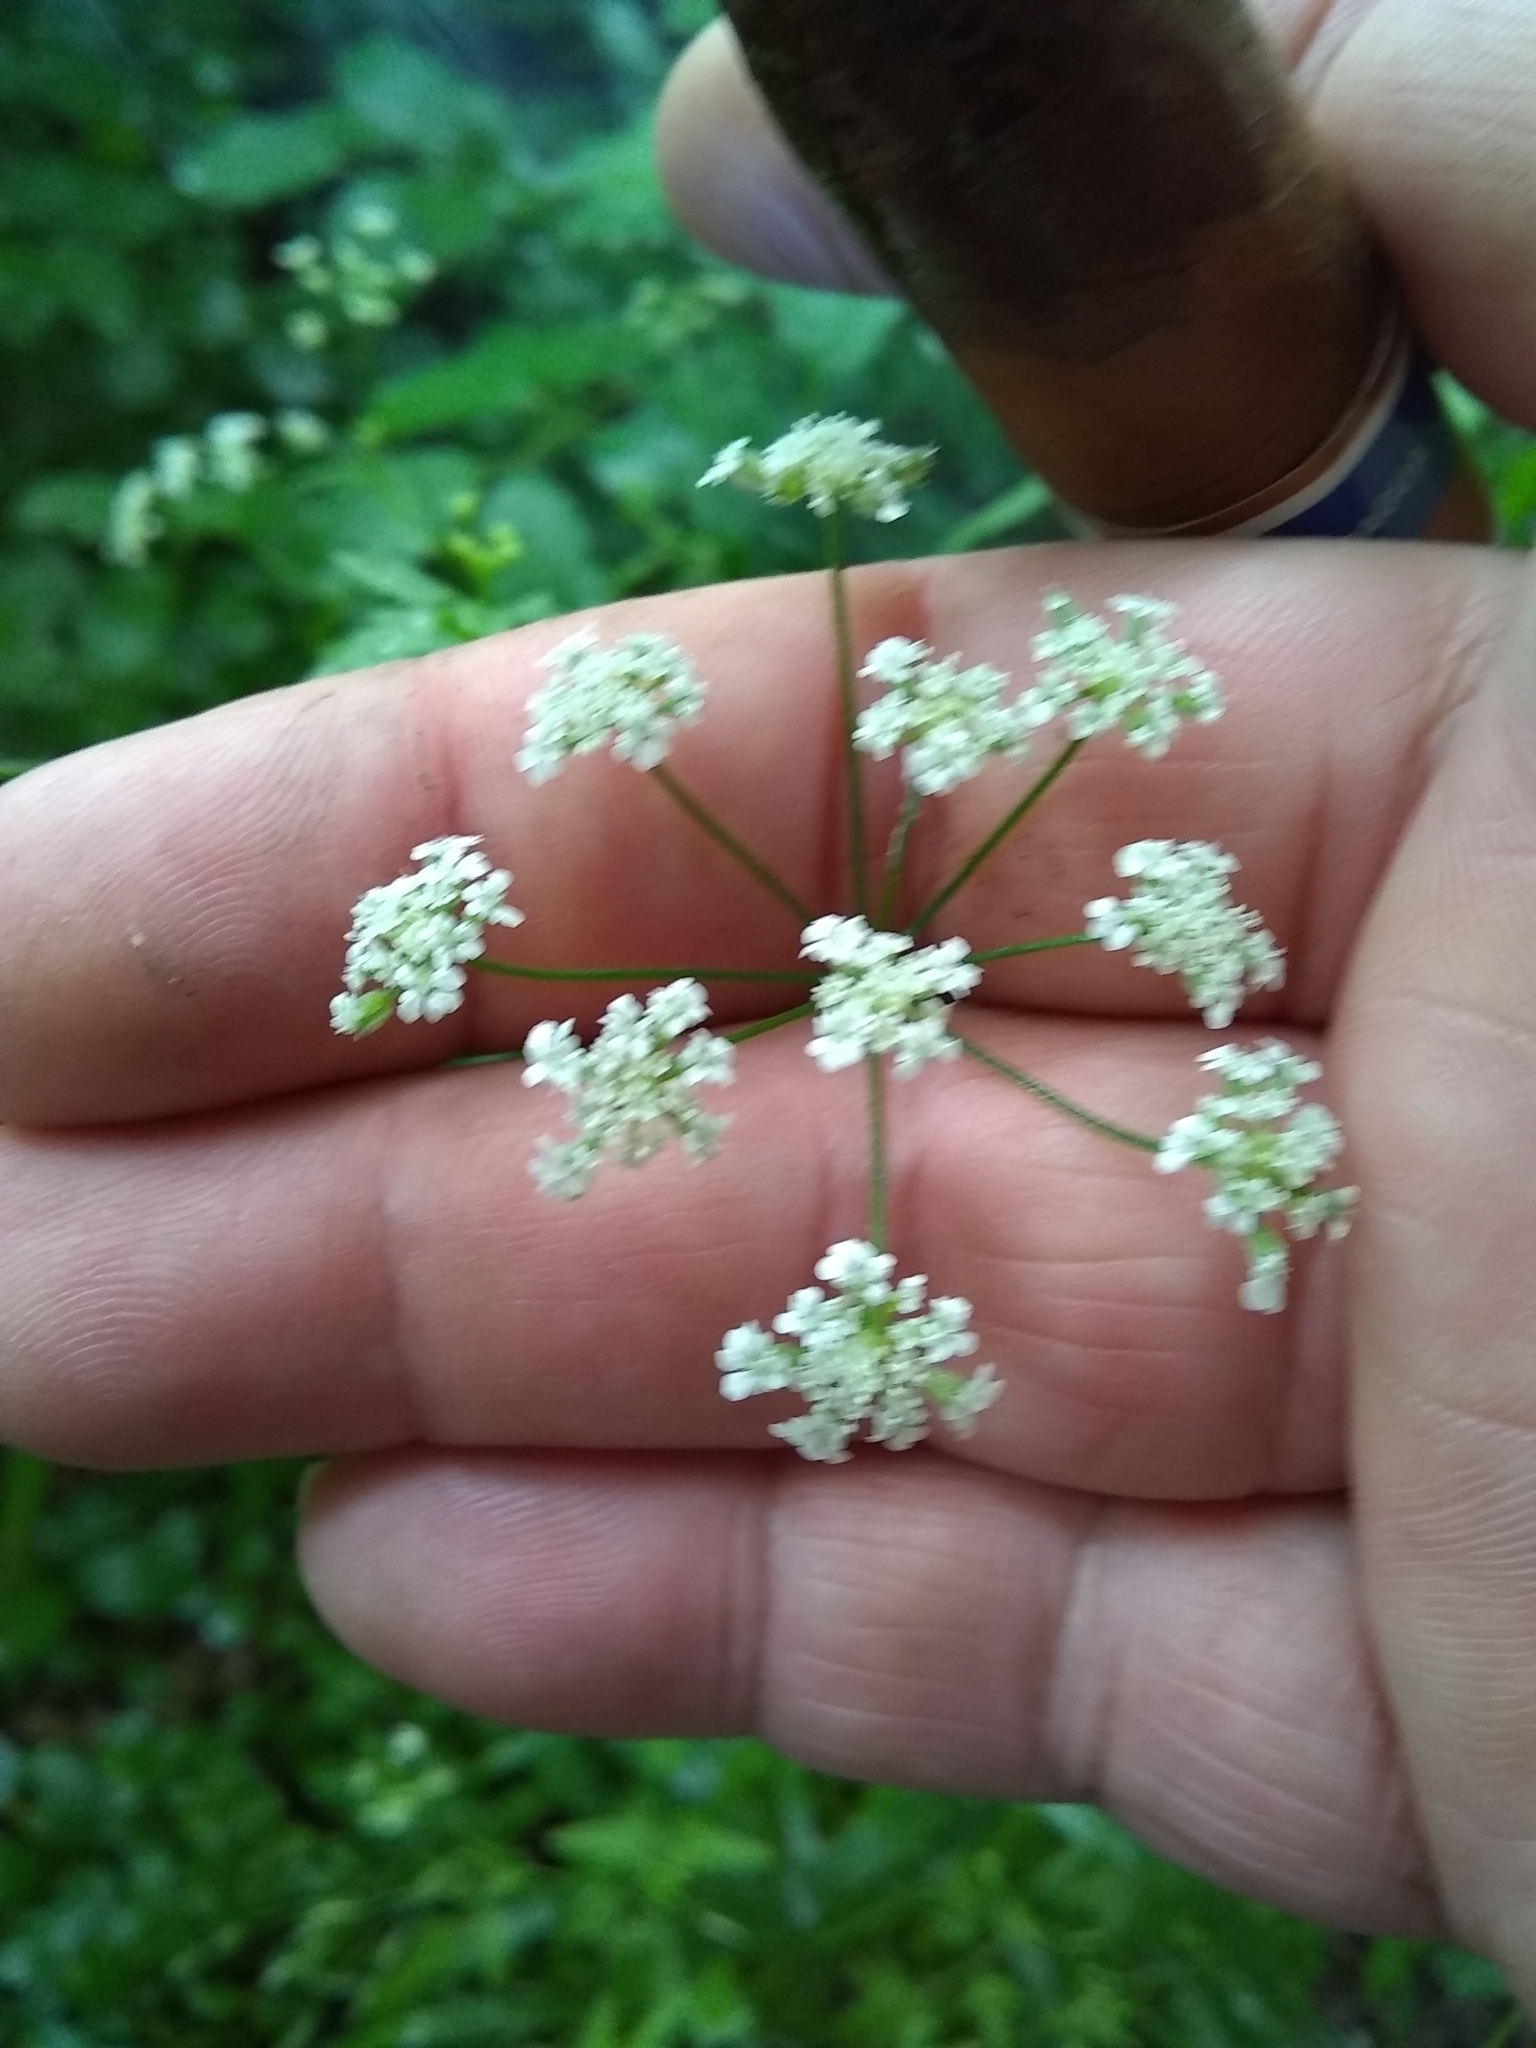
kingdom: Plantae
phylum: Tracheophyta
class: Magnoliopsida
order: Apiales
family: Apiaceae
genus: Torilis
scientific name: Torilis arvensis
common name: Spreading hedge-parsley
